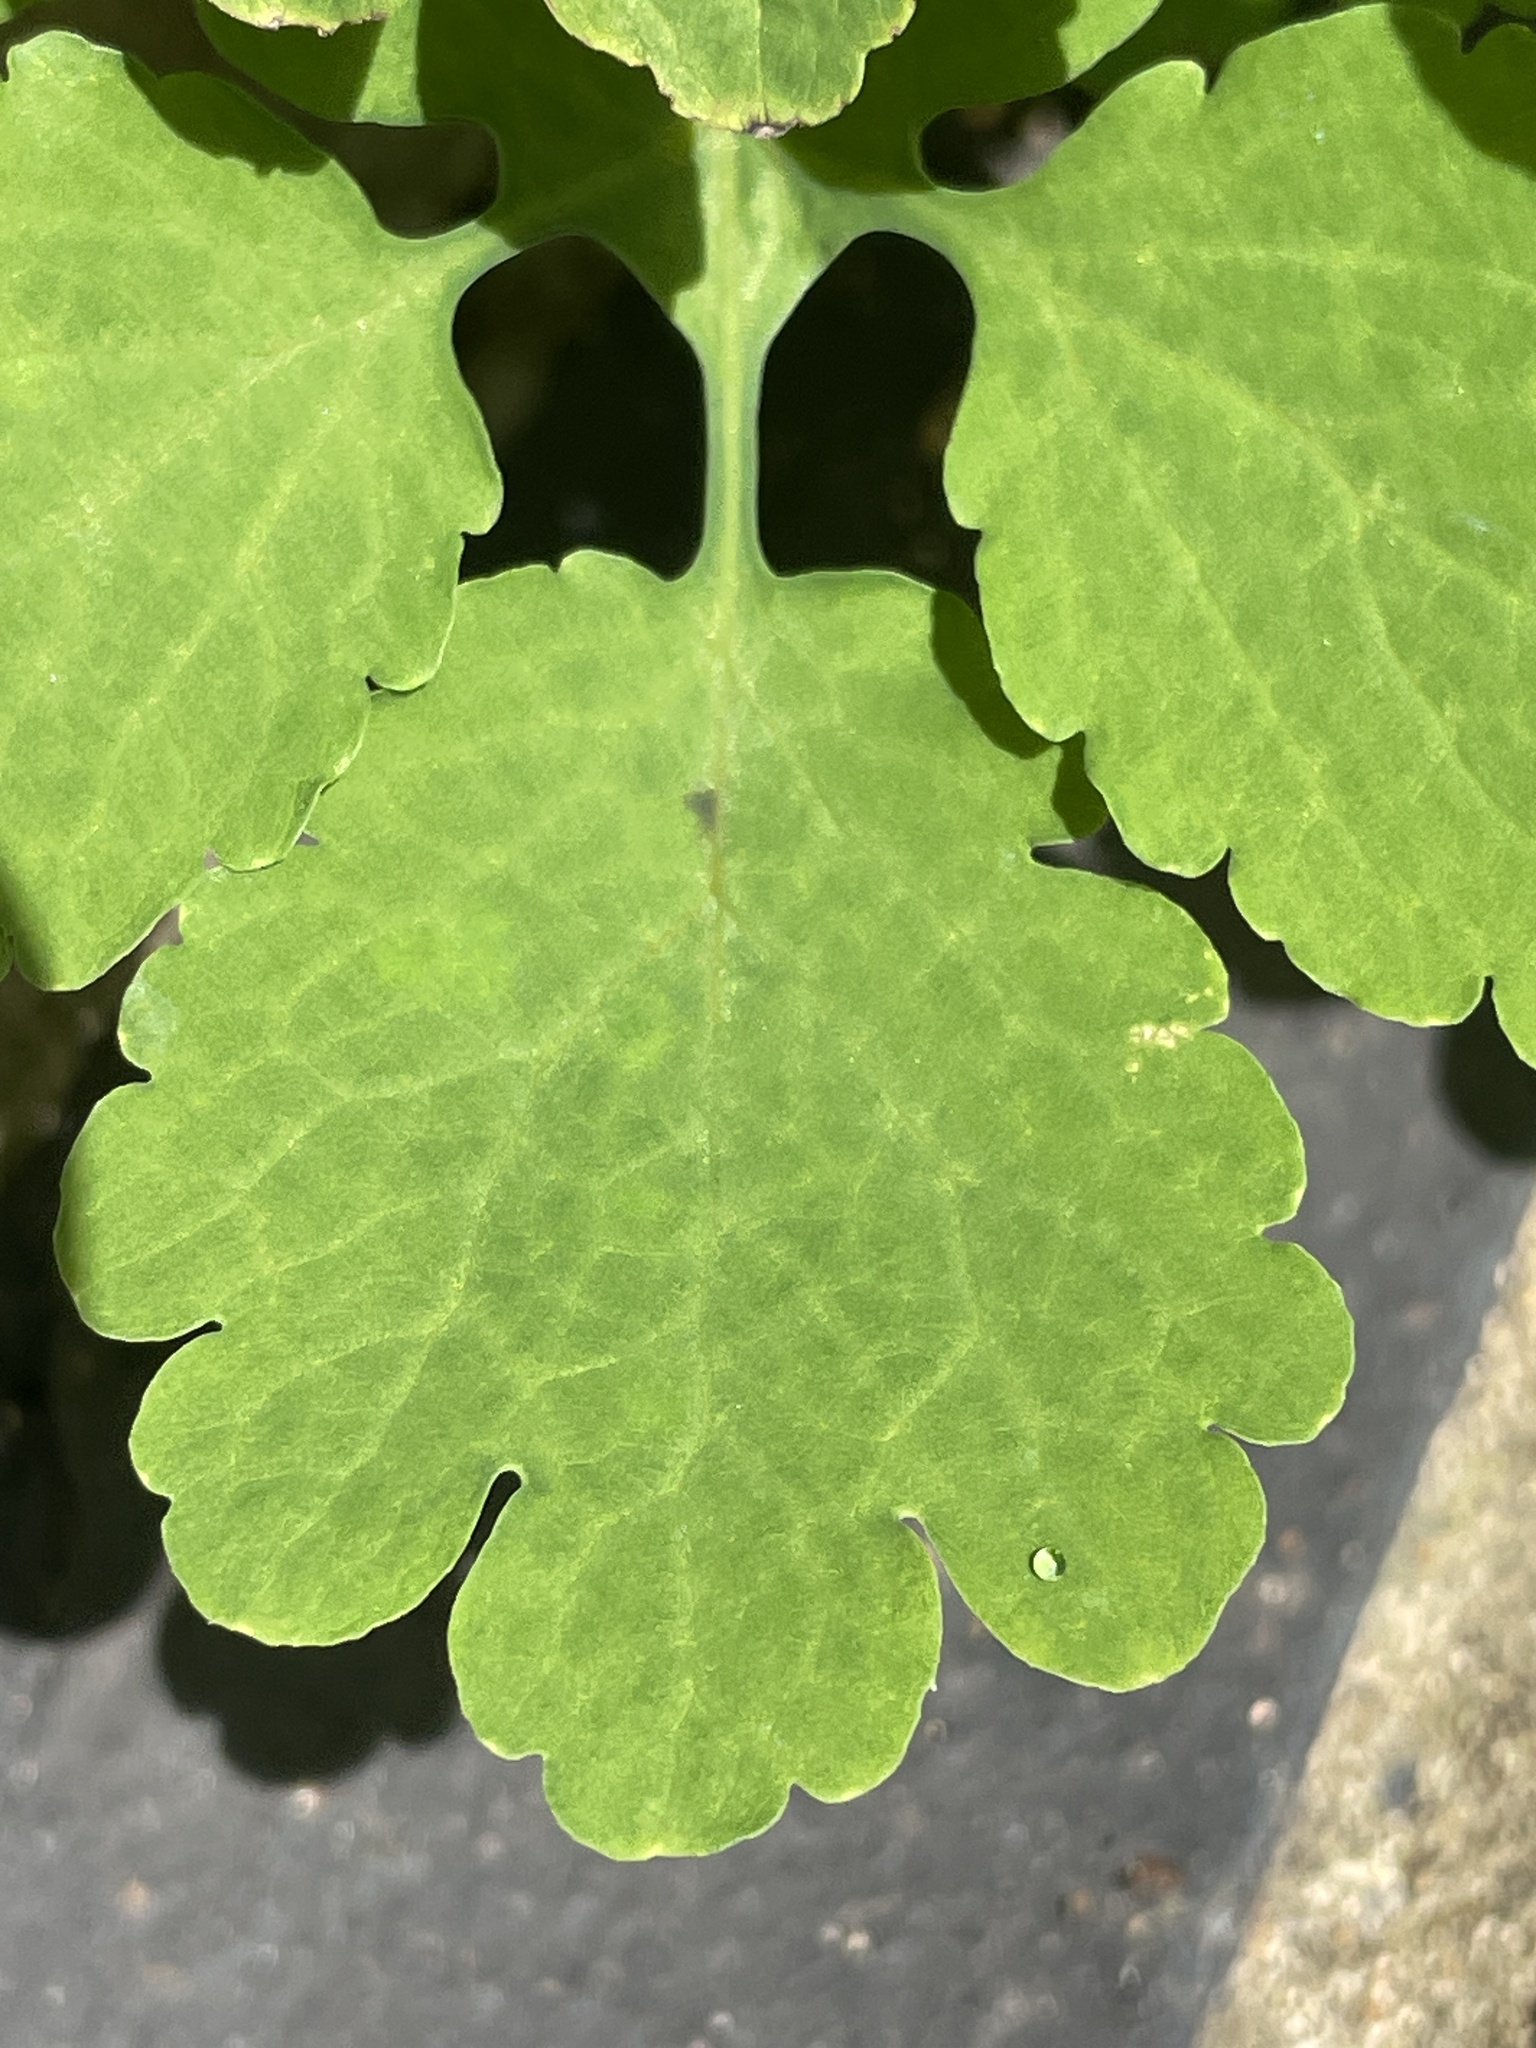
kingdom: Plantae
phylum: Tracheophyta
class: Magnoliopsida
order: Ranunculales
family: Papaveraceae
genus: Chelidonium
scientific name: Chelidonium majus
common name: Greater celandine
